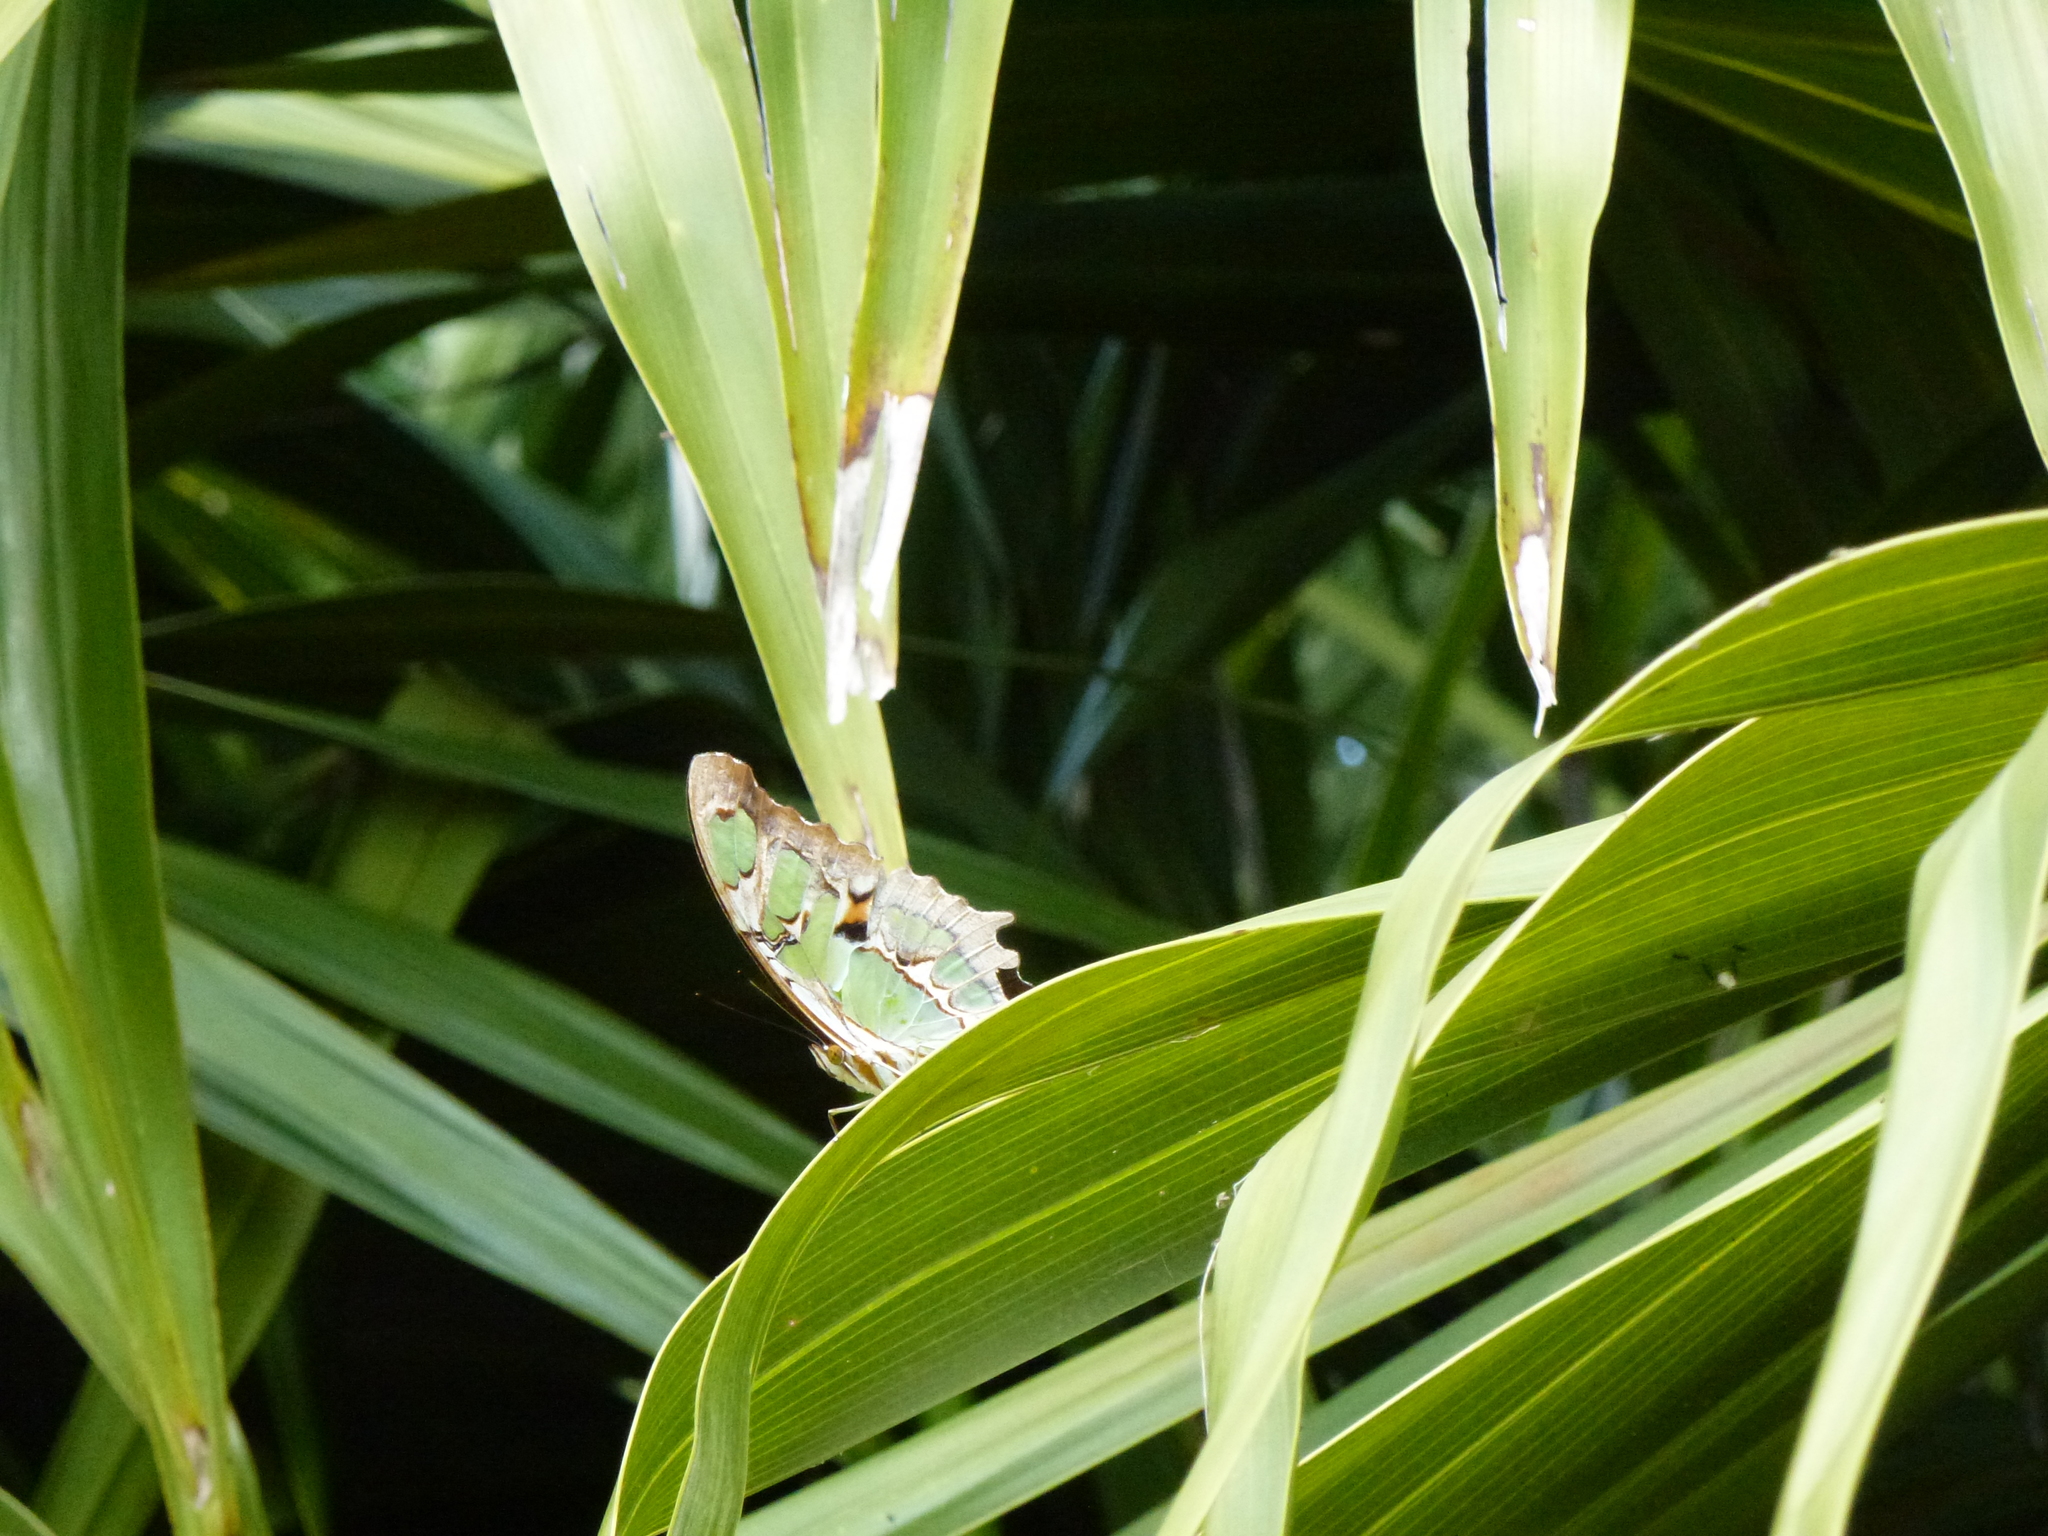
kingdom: Animalia
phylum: Arthropoda
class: Insecta
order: Lepidoptera
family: Nymphalidae
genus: Siproeta
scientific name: Siproeta stelenes
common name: Malachite
